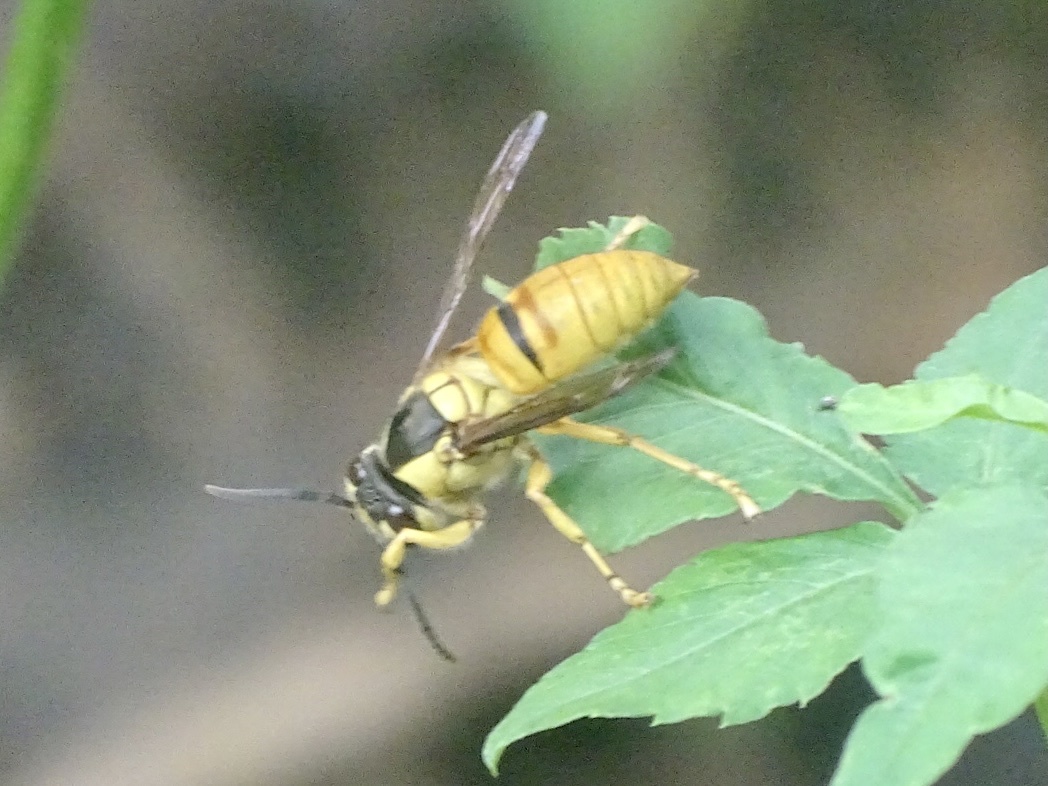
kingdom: Animalia
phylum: Arthropoda
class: Insecta
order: Hymenoptera
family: Vespidae
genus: Vespa
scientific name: Vespa bicolor
